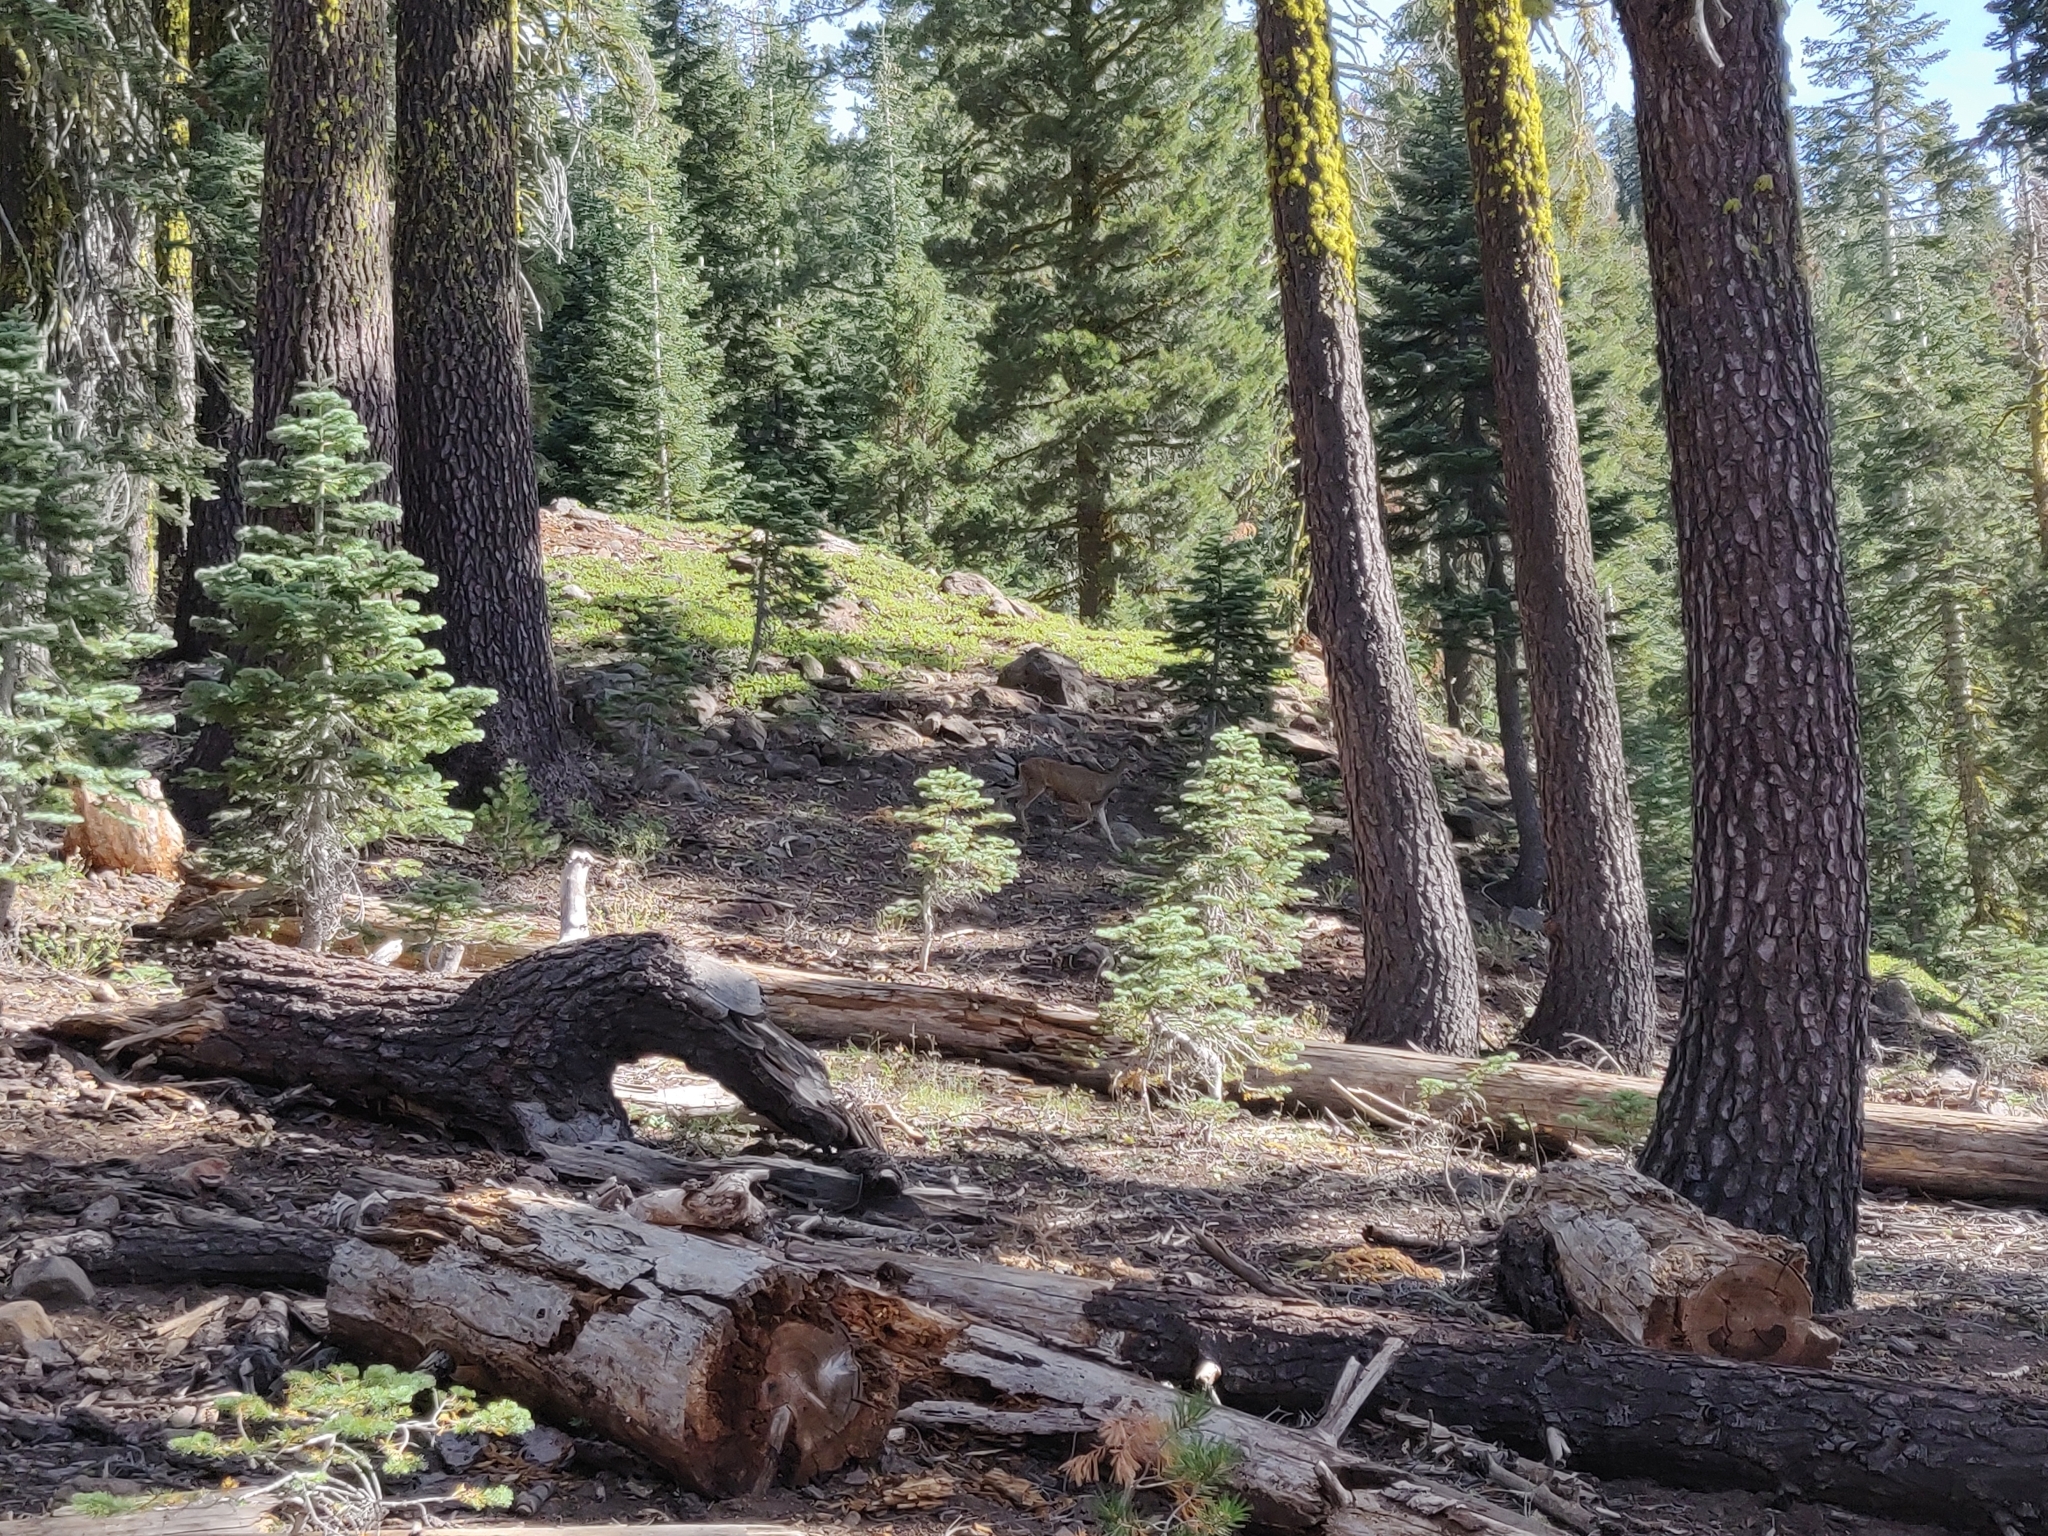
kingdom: Animalia
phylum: Chordata
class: Mammalia
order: Artiodactyla
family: Cervidae
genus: Odocoileus
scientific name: Odocoileus hemionus
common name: Mule deer
